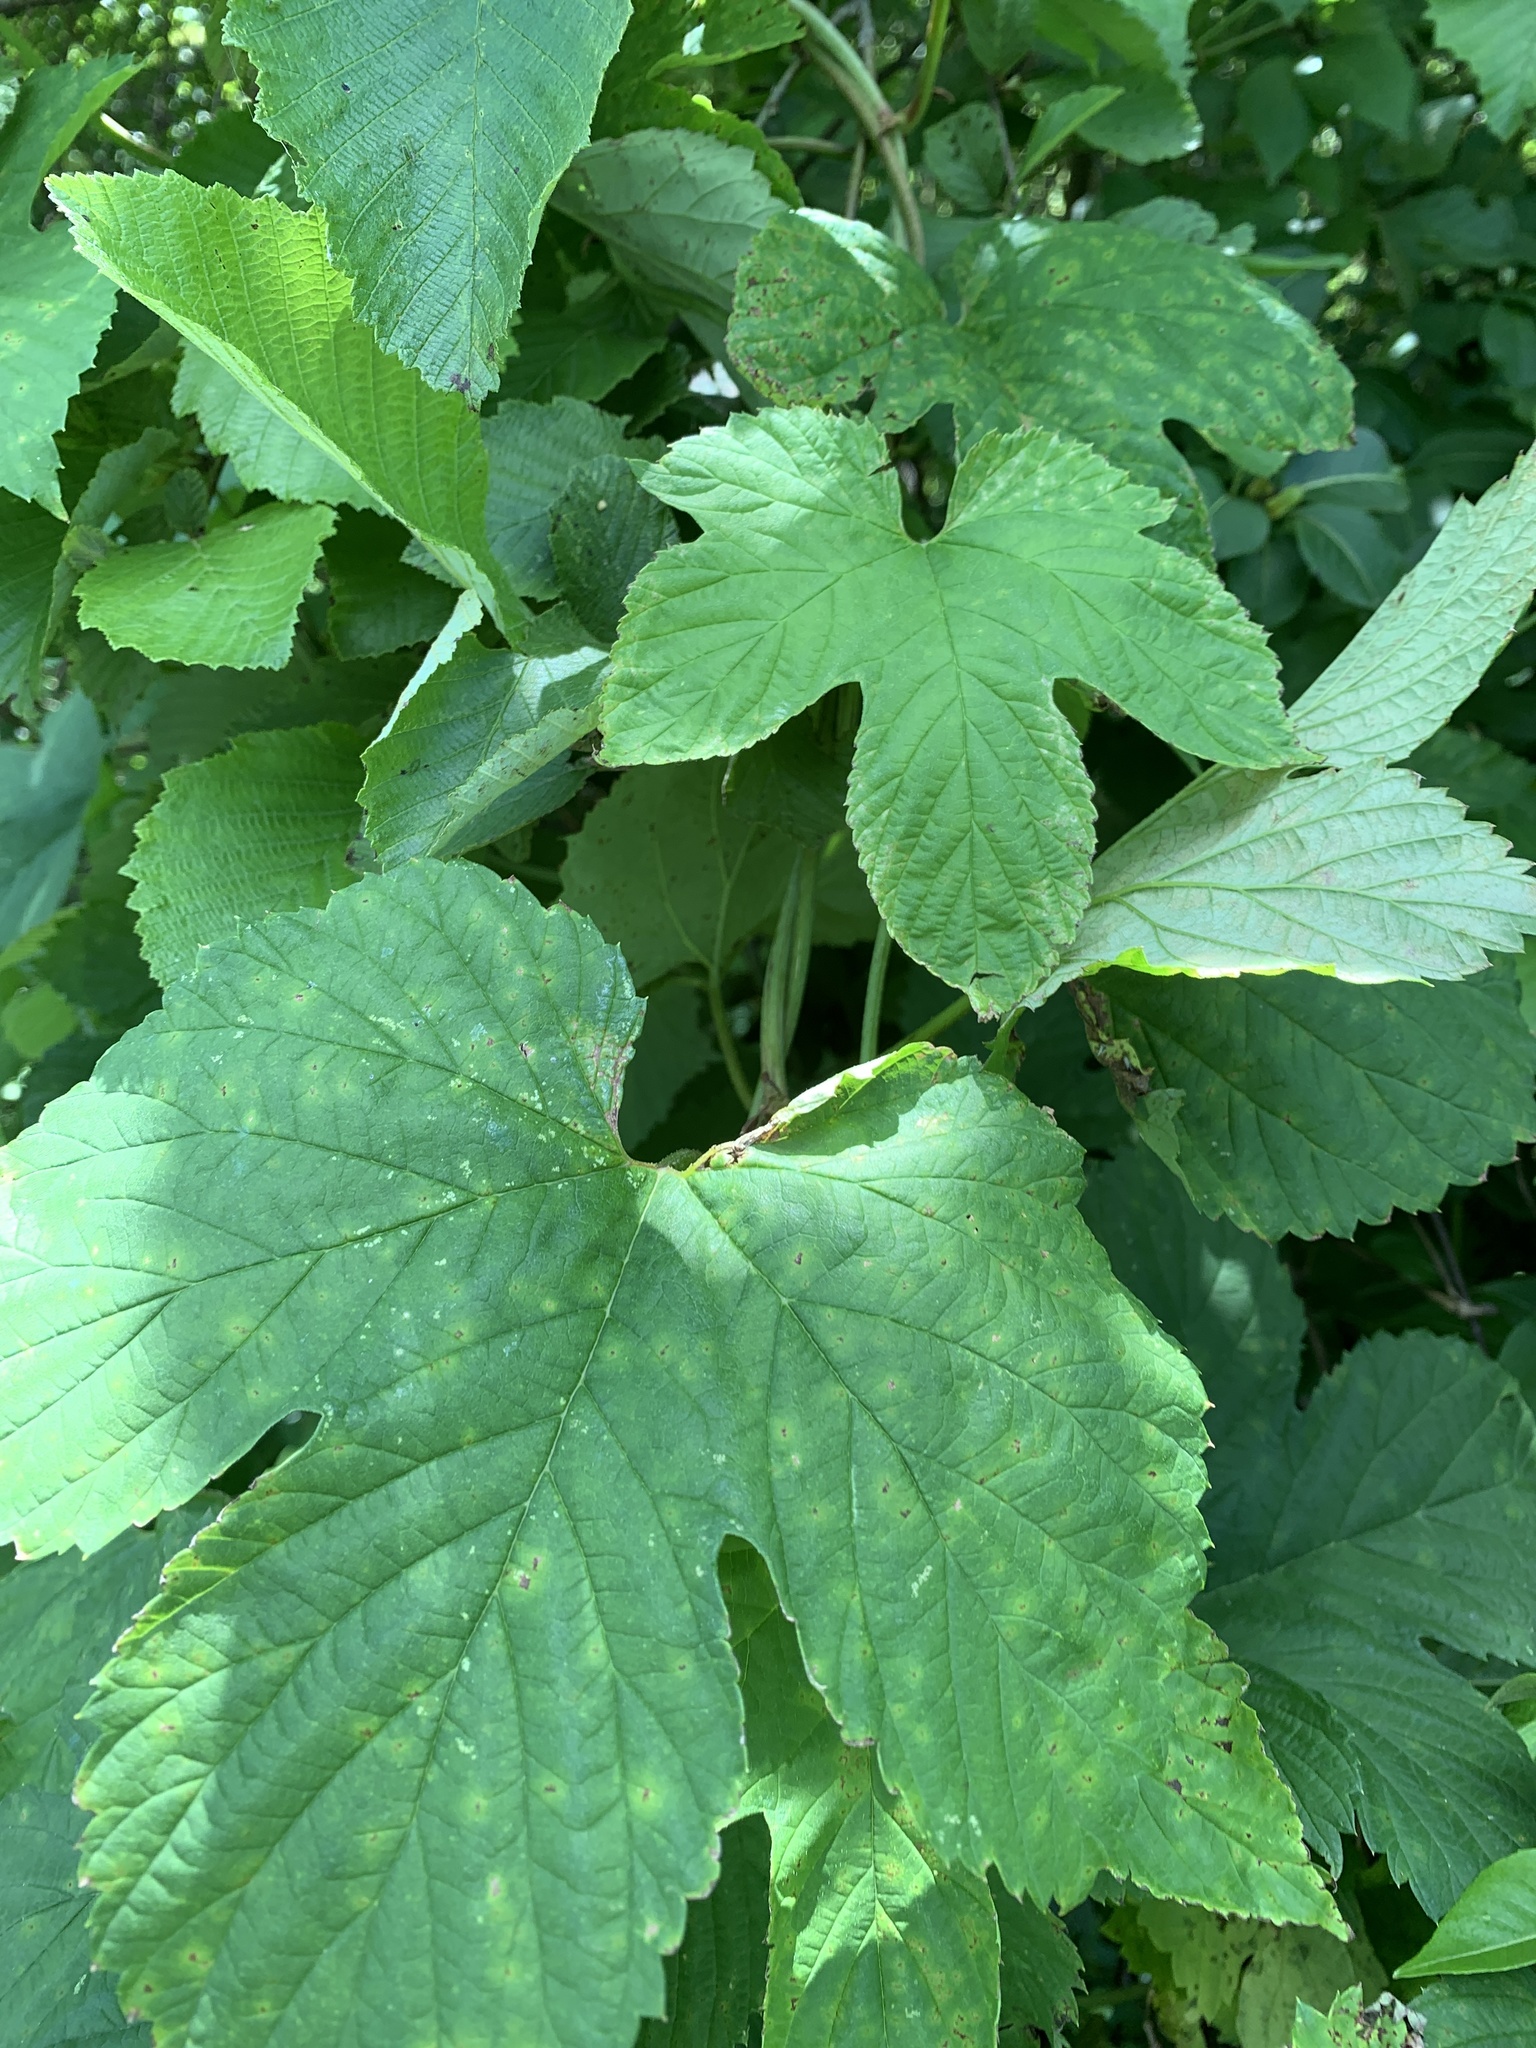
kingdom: Plantae
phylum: Tracheophyta
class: Magnoliopsida
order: Rosales
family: Cannabaceae
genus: Humulus
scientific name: Humulus lupulus
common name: Hop
